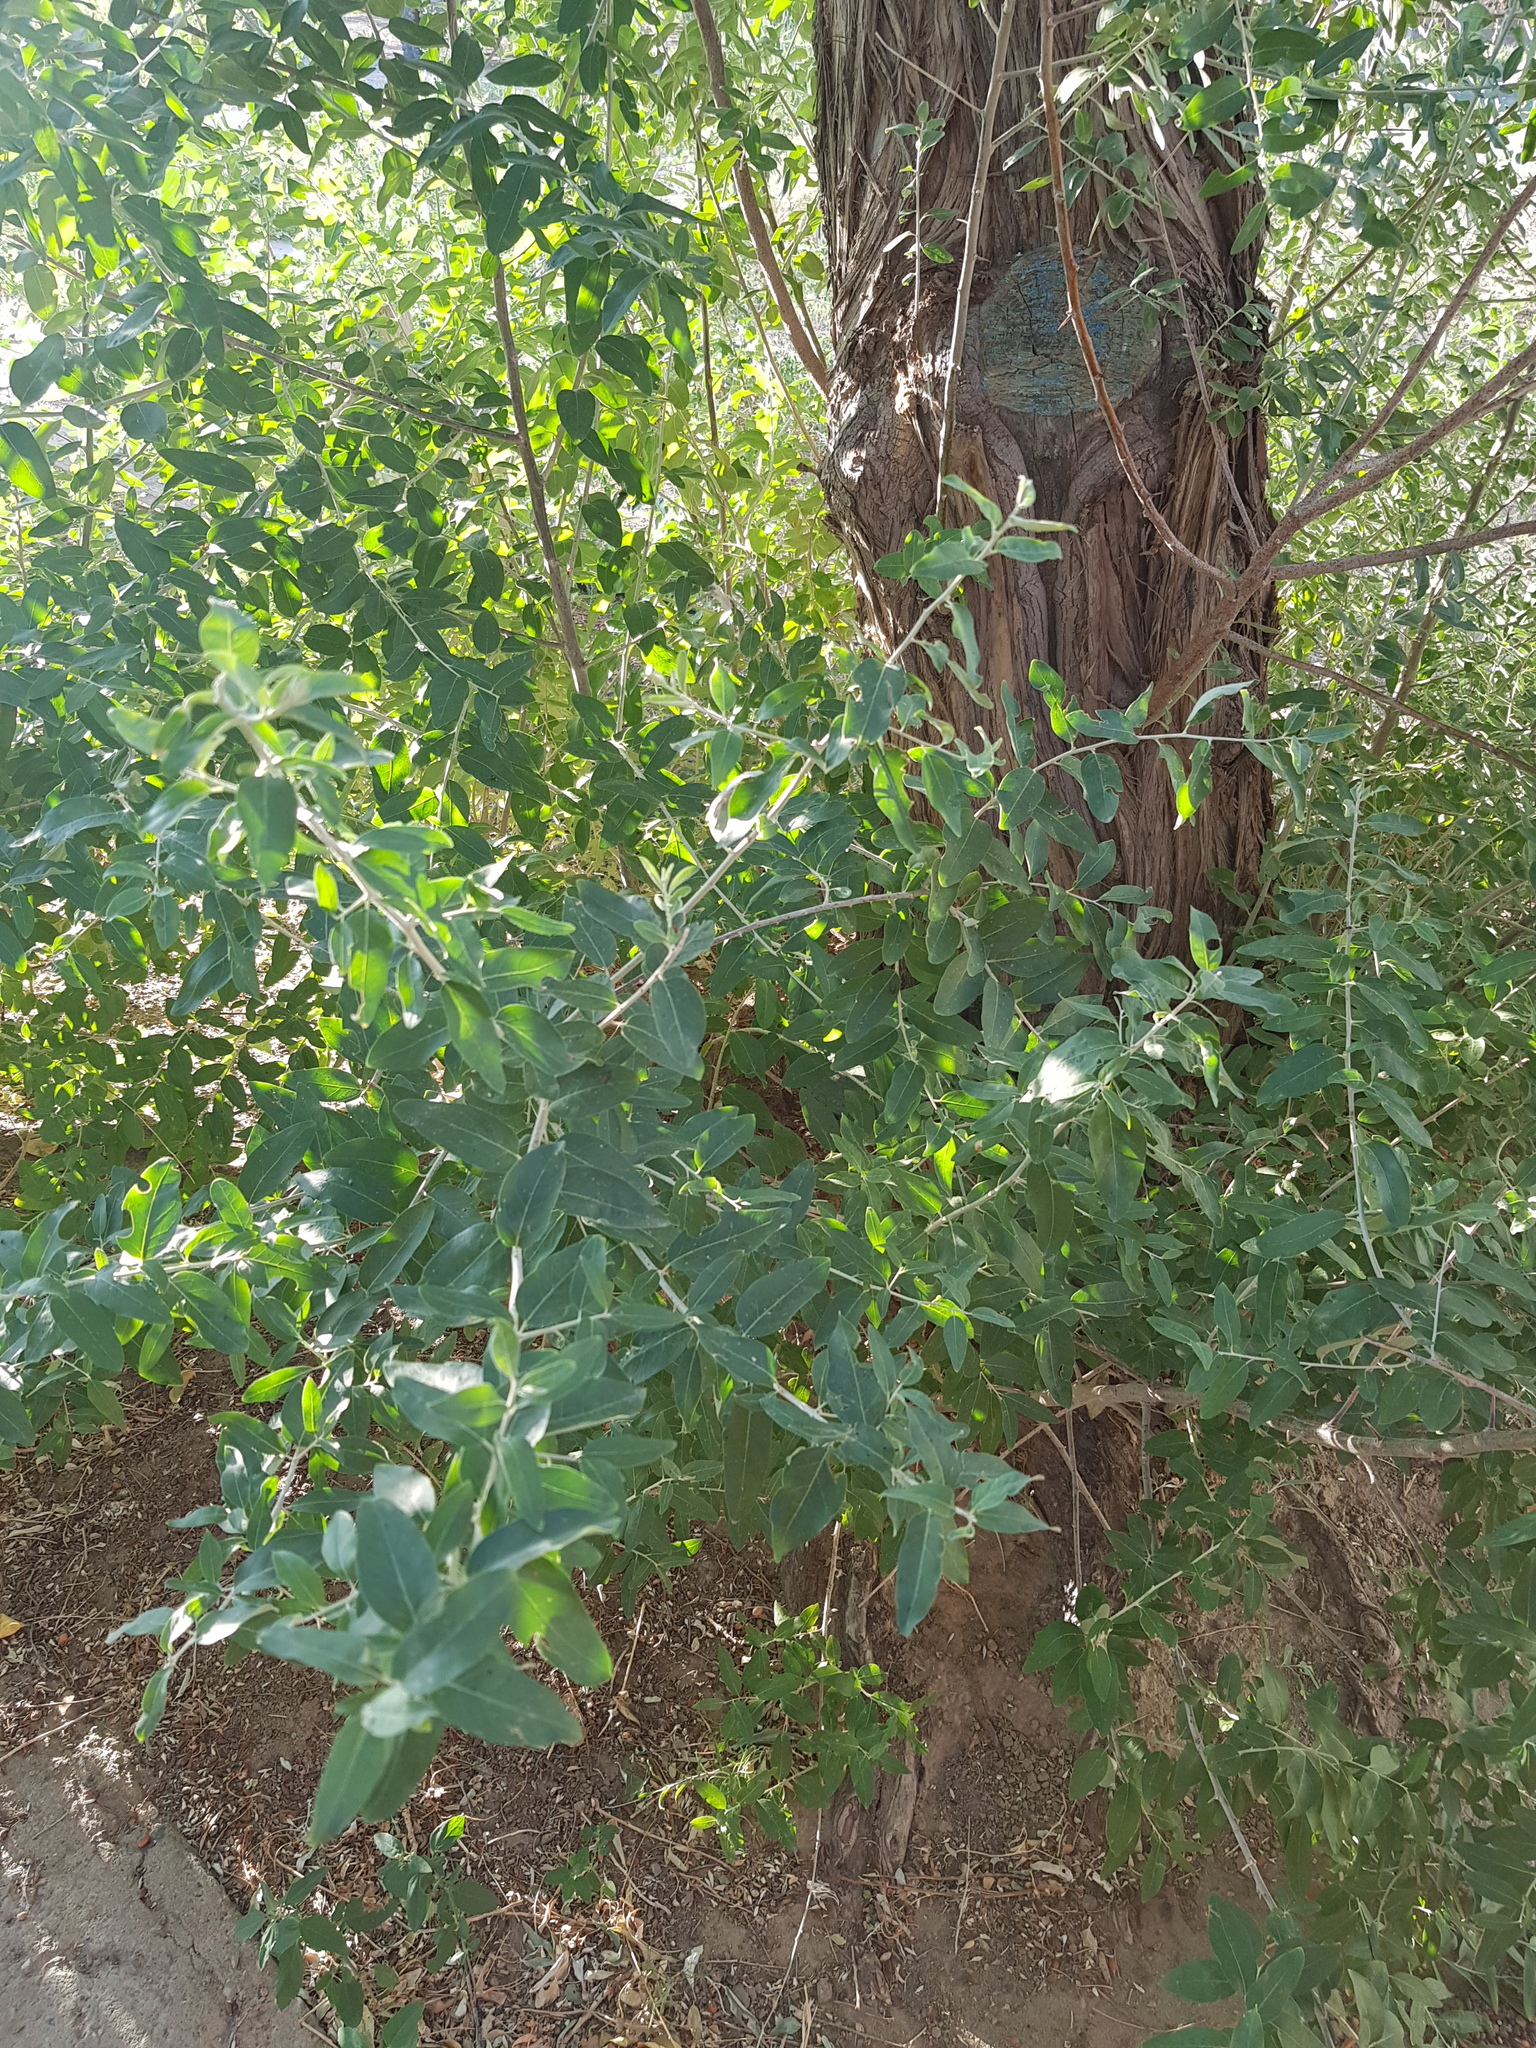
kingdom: Plantae
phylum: Tracheophyta
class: Magnoliopsida
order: Malpighiales
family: Salicaceae
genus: Populus
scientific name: Populus euphratica
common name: Euphrates poplar
